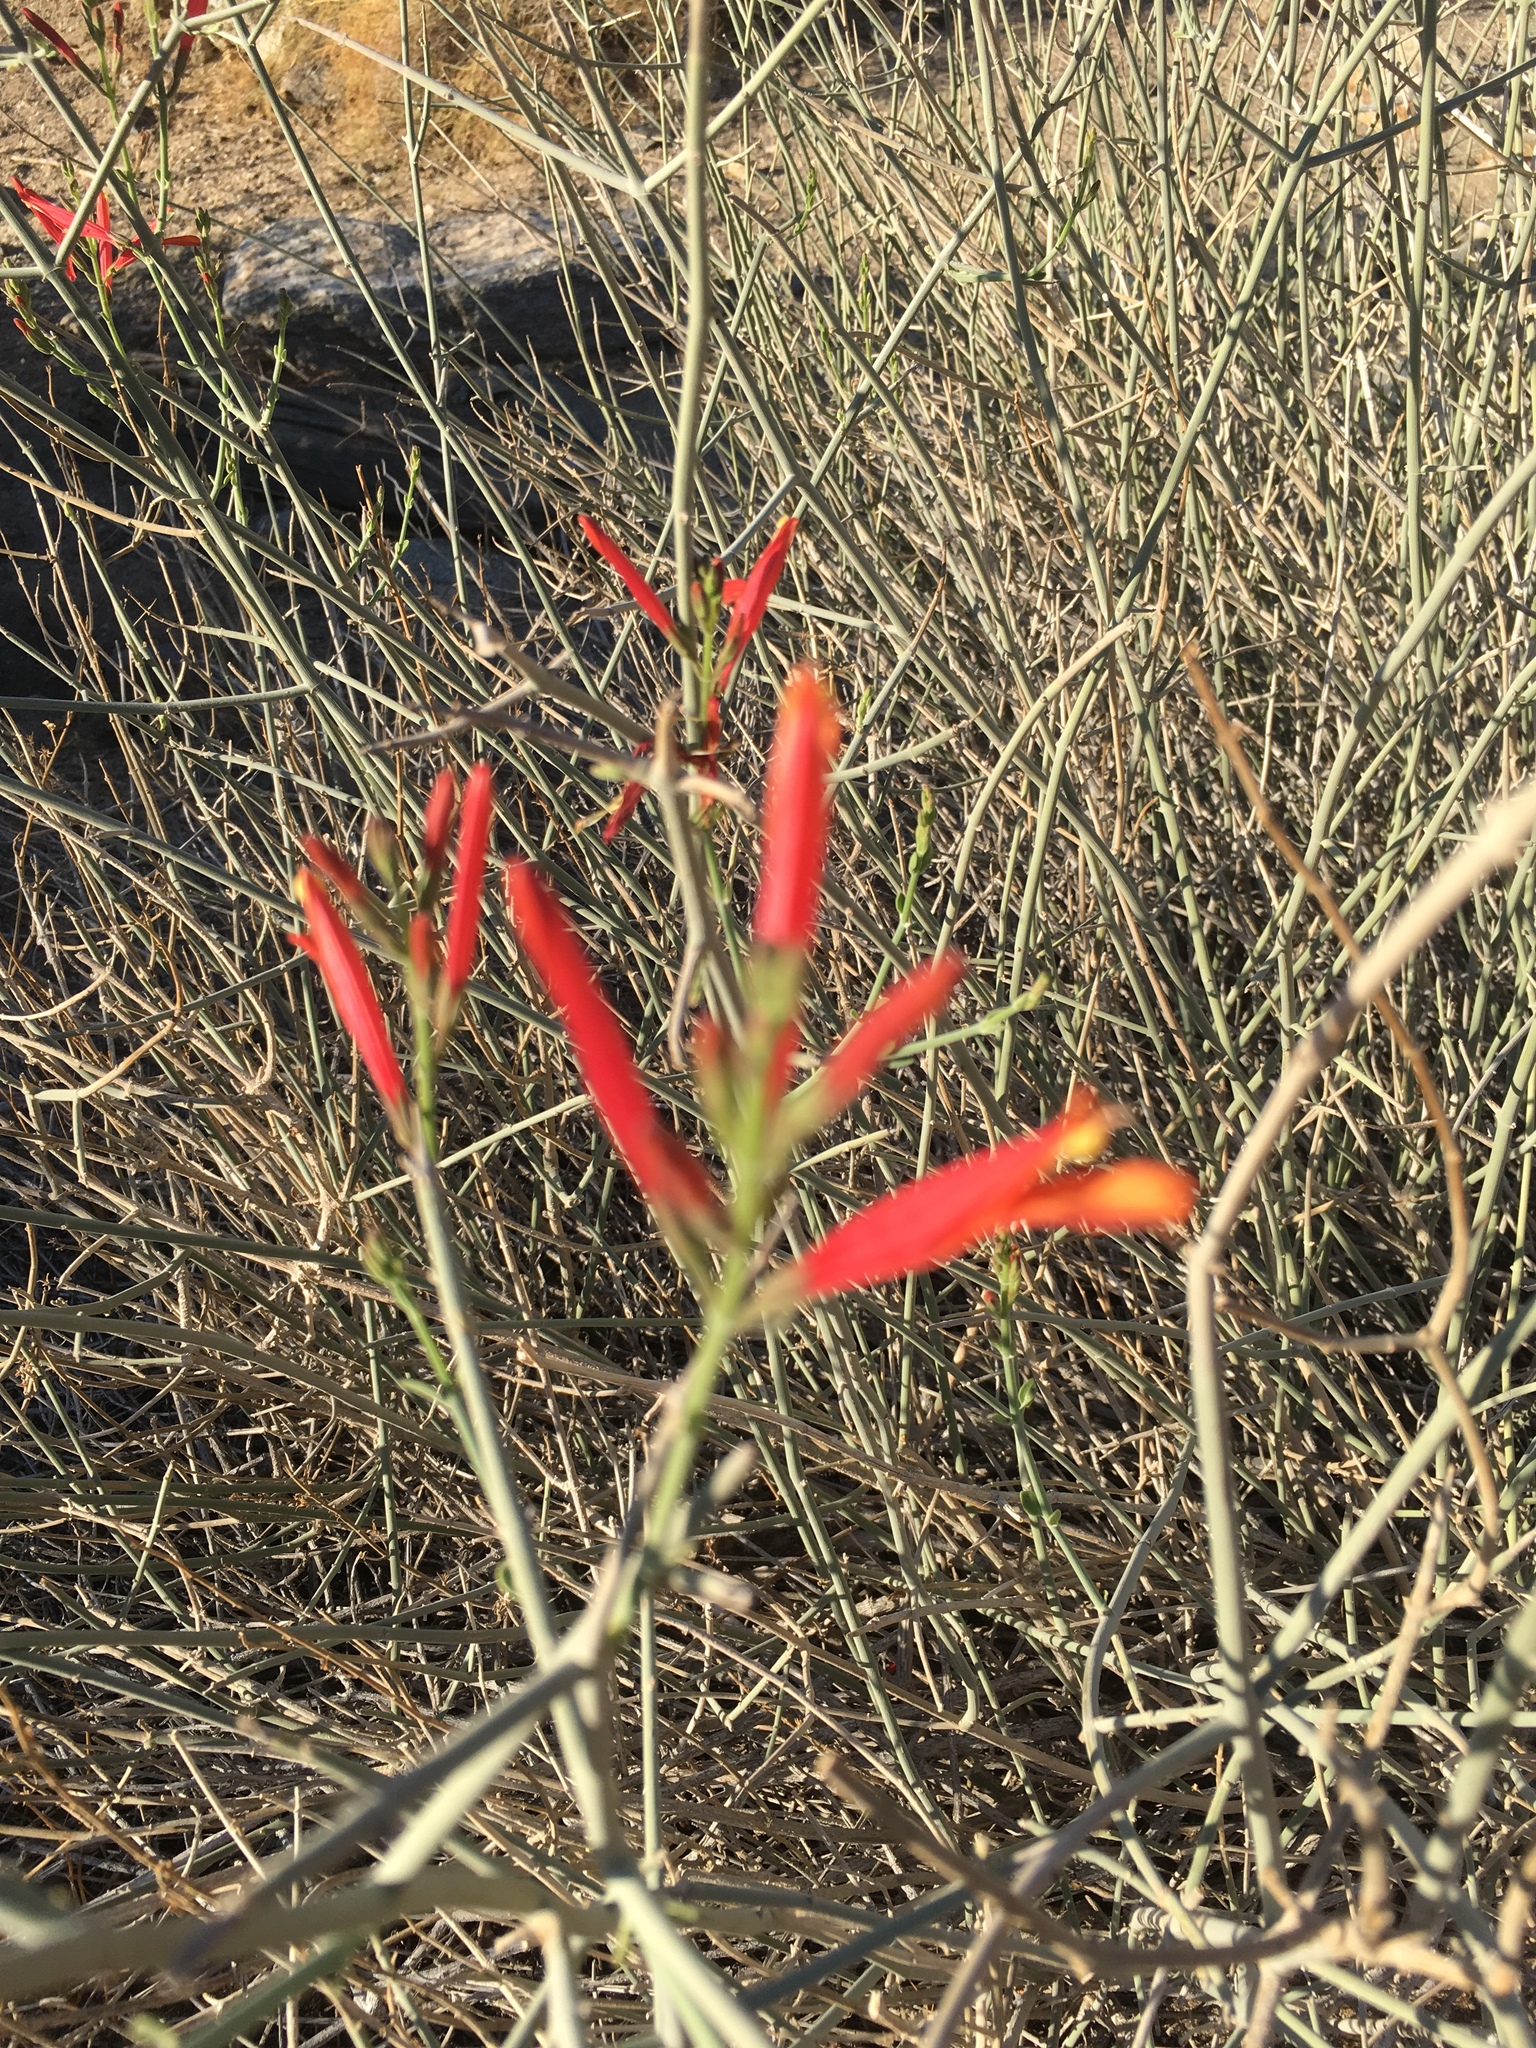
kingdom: Plantae
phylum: Tracheophyta
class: Magnoliopsida
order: Lamiales
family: Acanthaceae
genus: Justicia
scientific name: Justicia californica
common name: Chuparosa-honeysuckle
